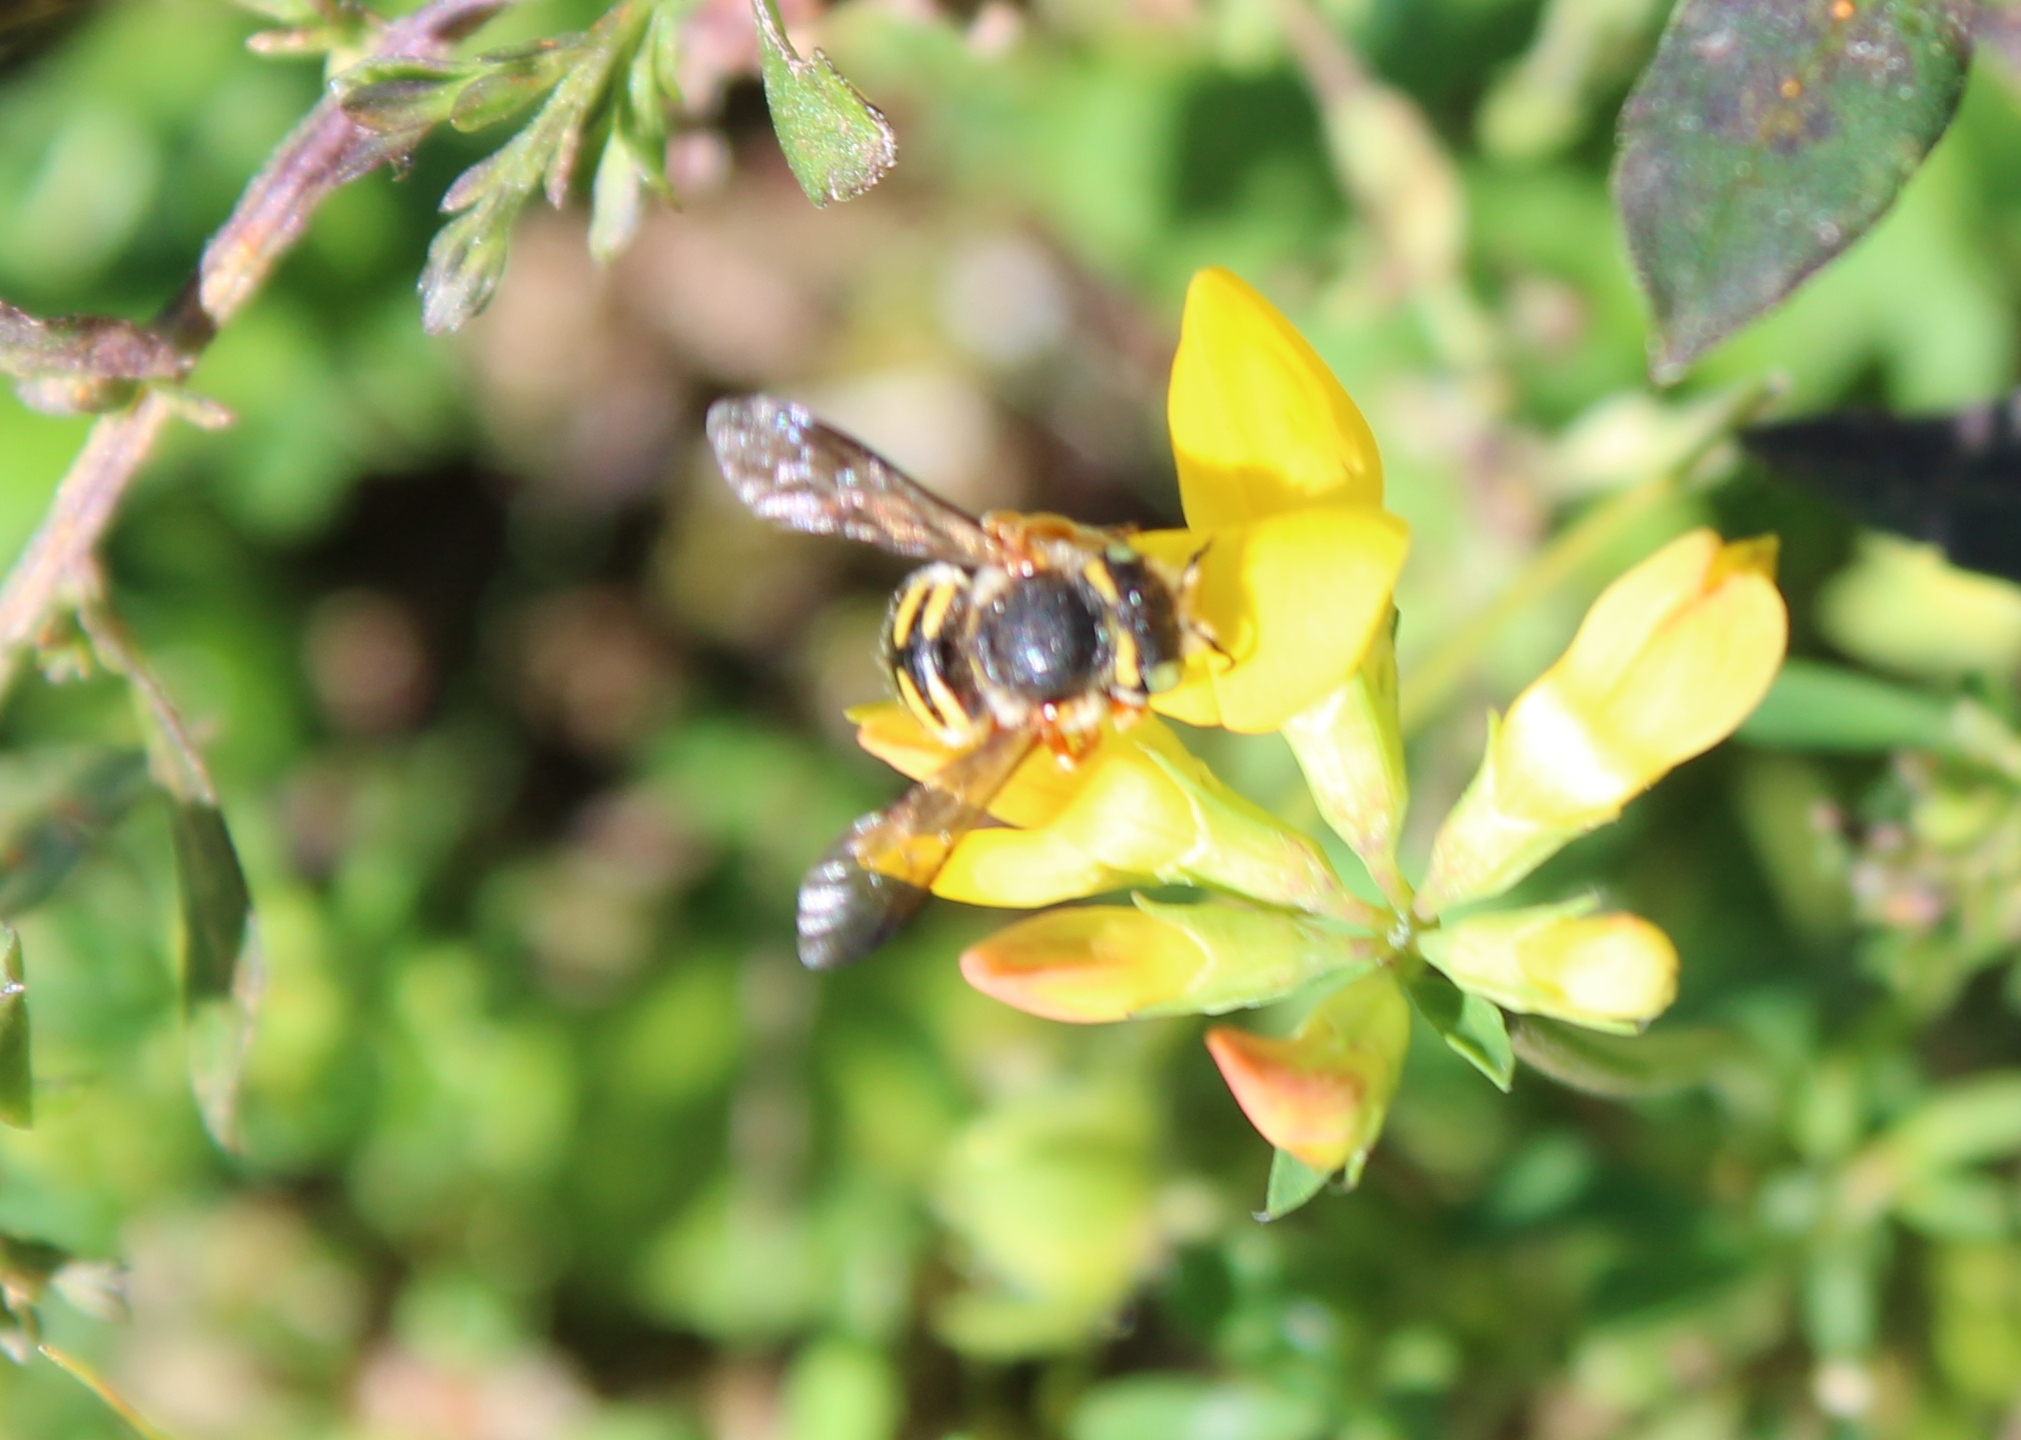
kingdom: Animalia
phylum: Arthropoda
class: Insecta
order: Hymenoptera
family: Megachilidae
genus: Anthidium
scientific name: Anthidium oblongatum
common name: Oblong wool carder bee
